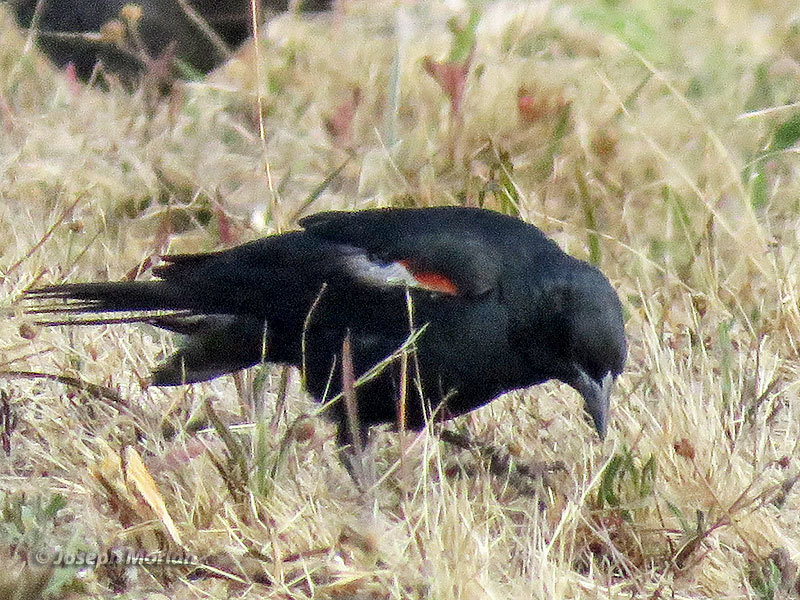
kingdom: Animalia
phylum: Chordata
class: Aves
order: Passeriformes
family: Icteridae
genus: Agelaius
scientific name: Agelaius tricolor
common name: Tricolored blackbird
